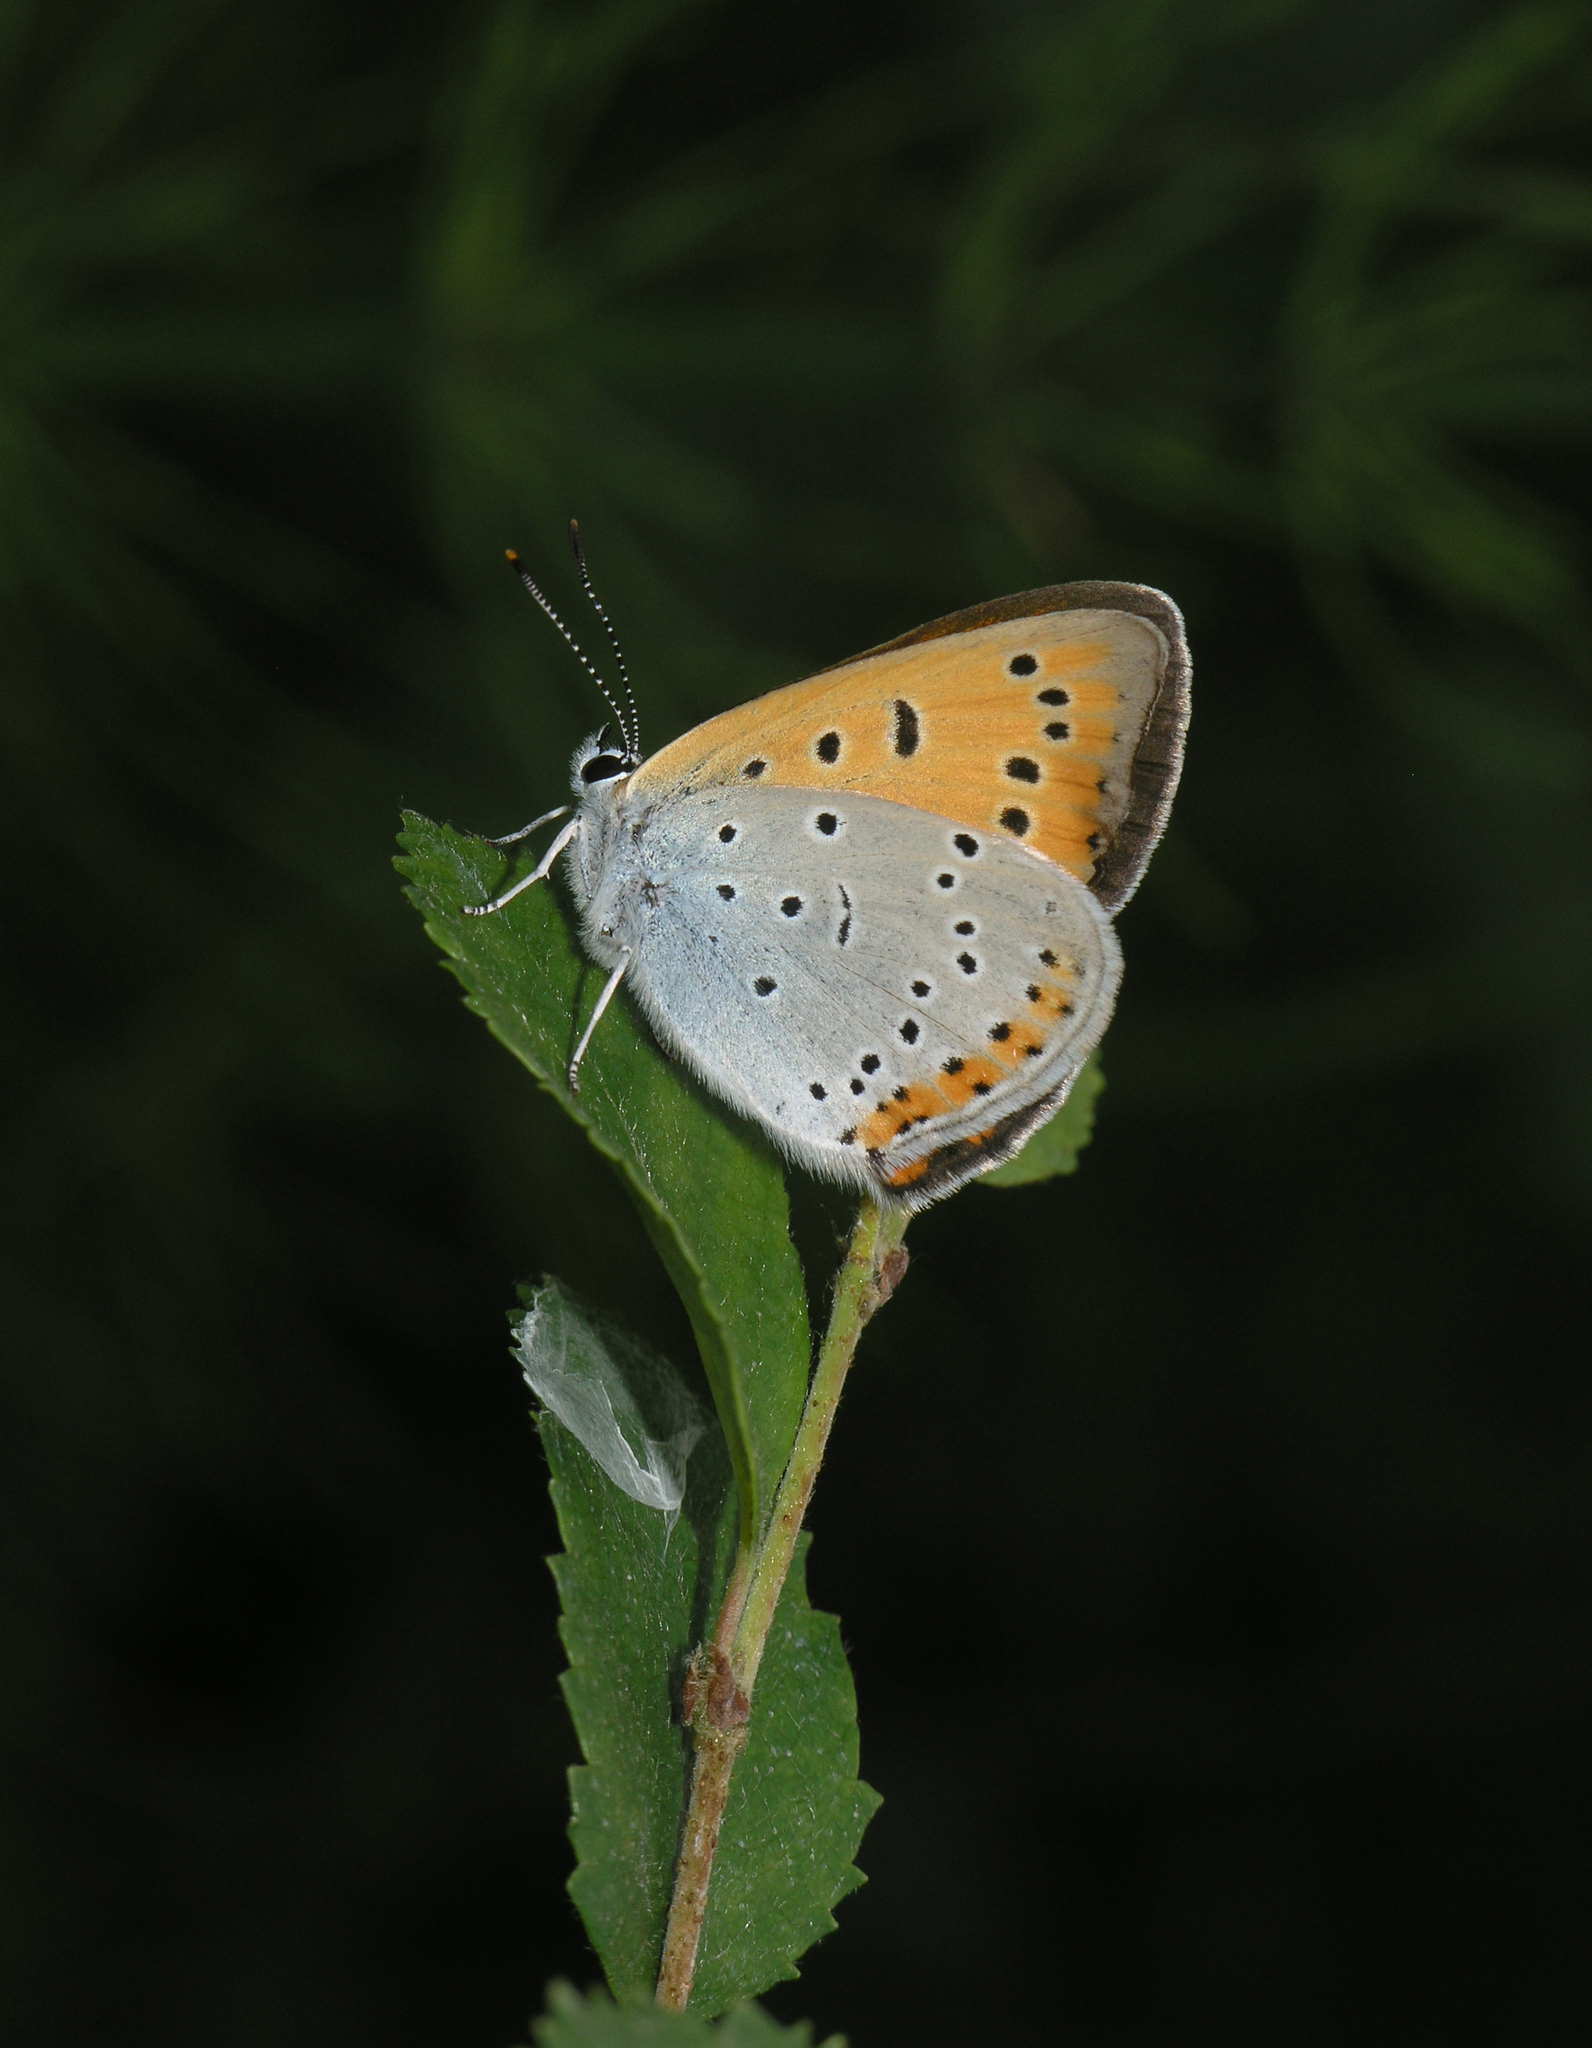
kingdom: Animalia
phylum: Arthropoda
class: Insecta
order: Lepidoptera
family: Lycaenidae
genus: Lycaena
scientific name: Lycaena dispar
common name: Large copper
